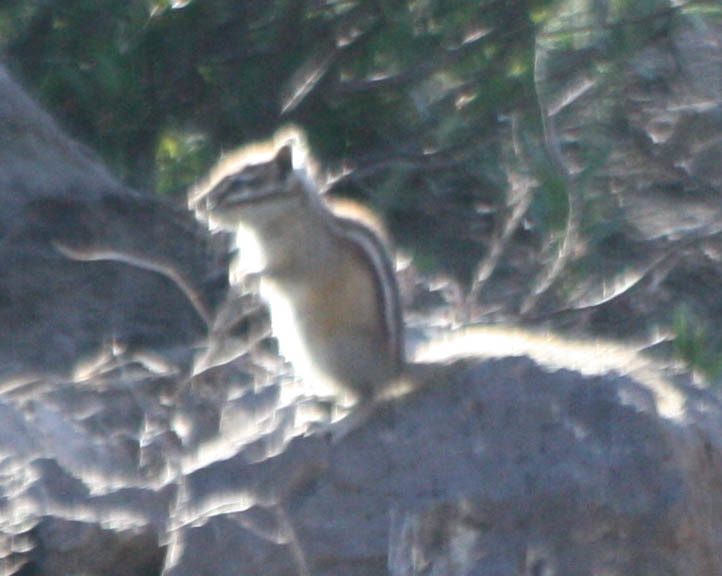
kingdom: Animalia
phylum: Chordata
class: Mammalia
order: Rodentia
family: Sciuridae
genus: Tamias
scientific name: Tamias minimus
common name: Least chipmunk
